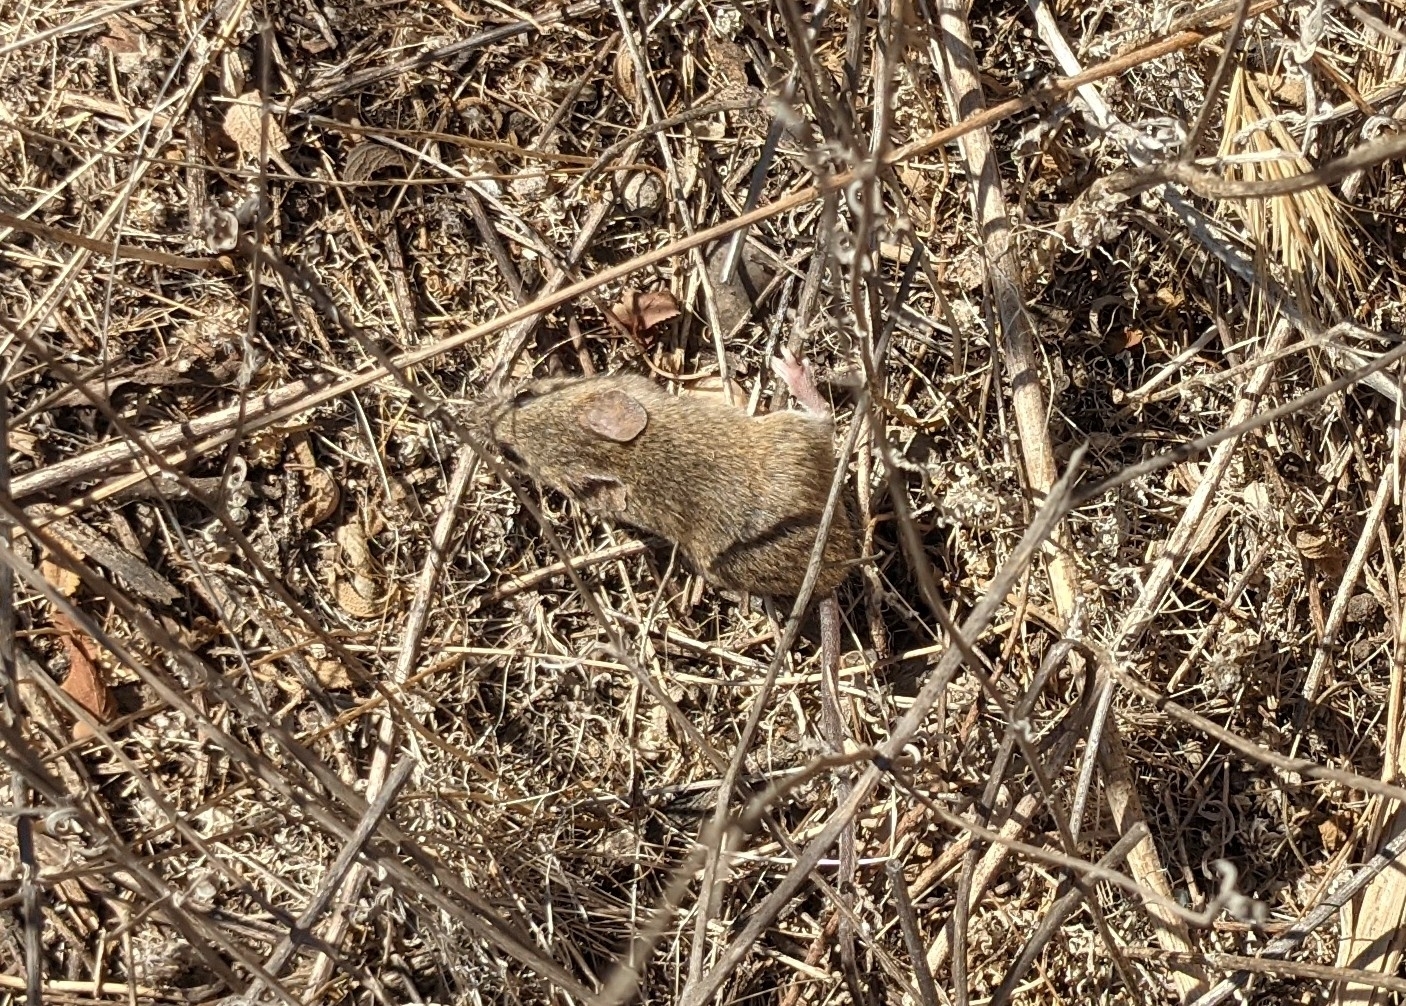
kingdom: Animalia
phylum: Chordata
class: Mammalia
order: Rodentia
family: Cricetidae
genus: Reithrodontomys
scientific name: Reithrodontomys megalotis
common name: Western harvest mouse
